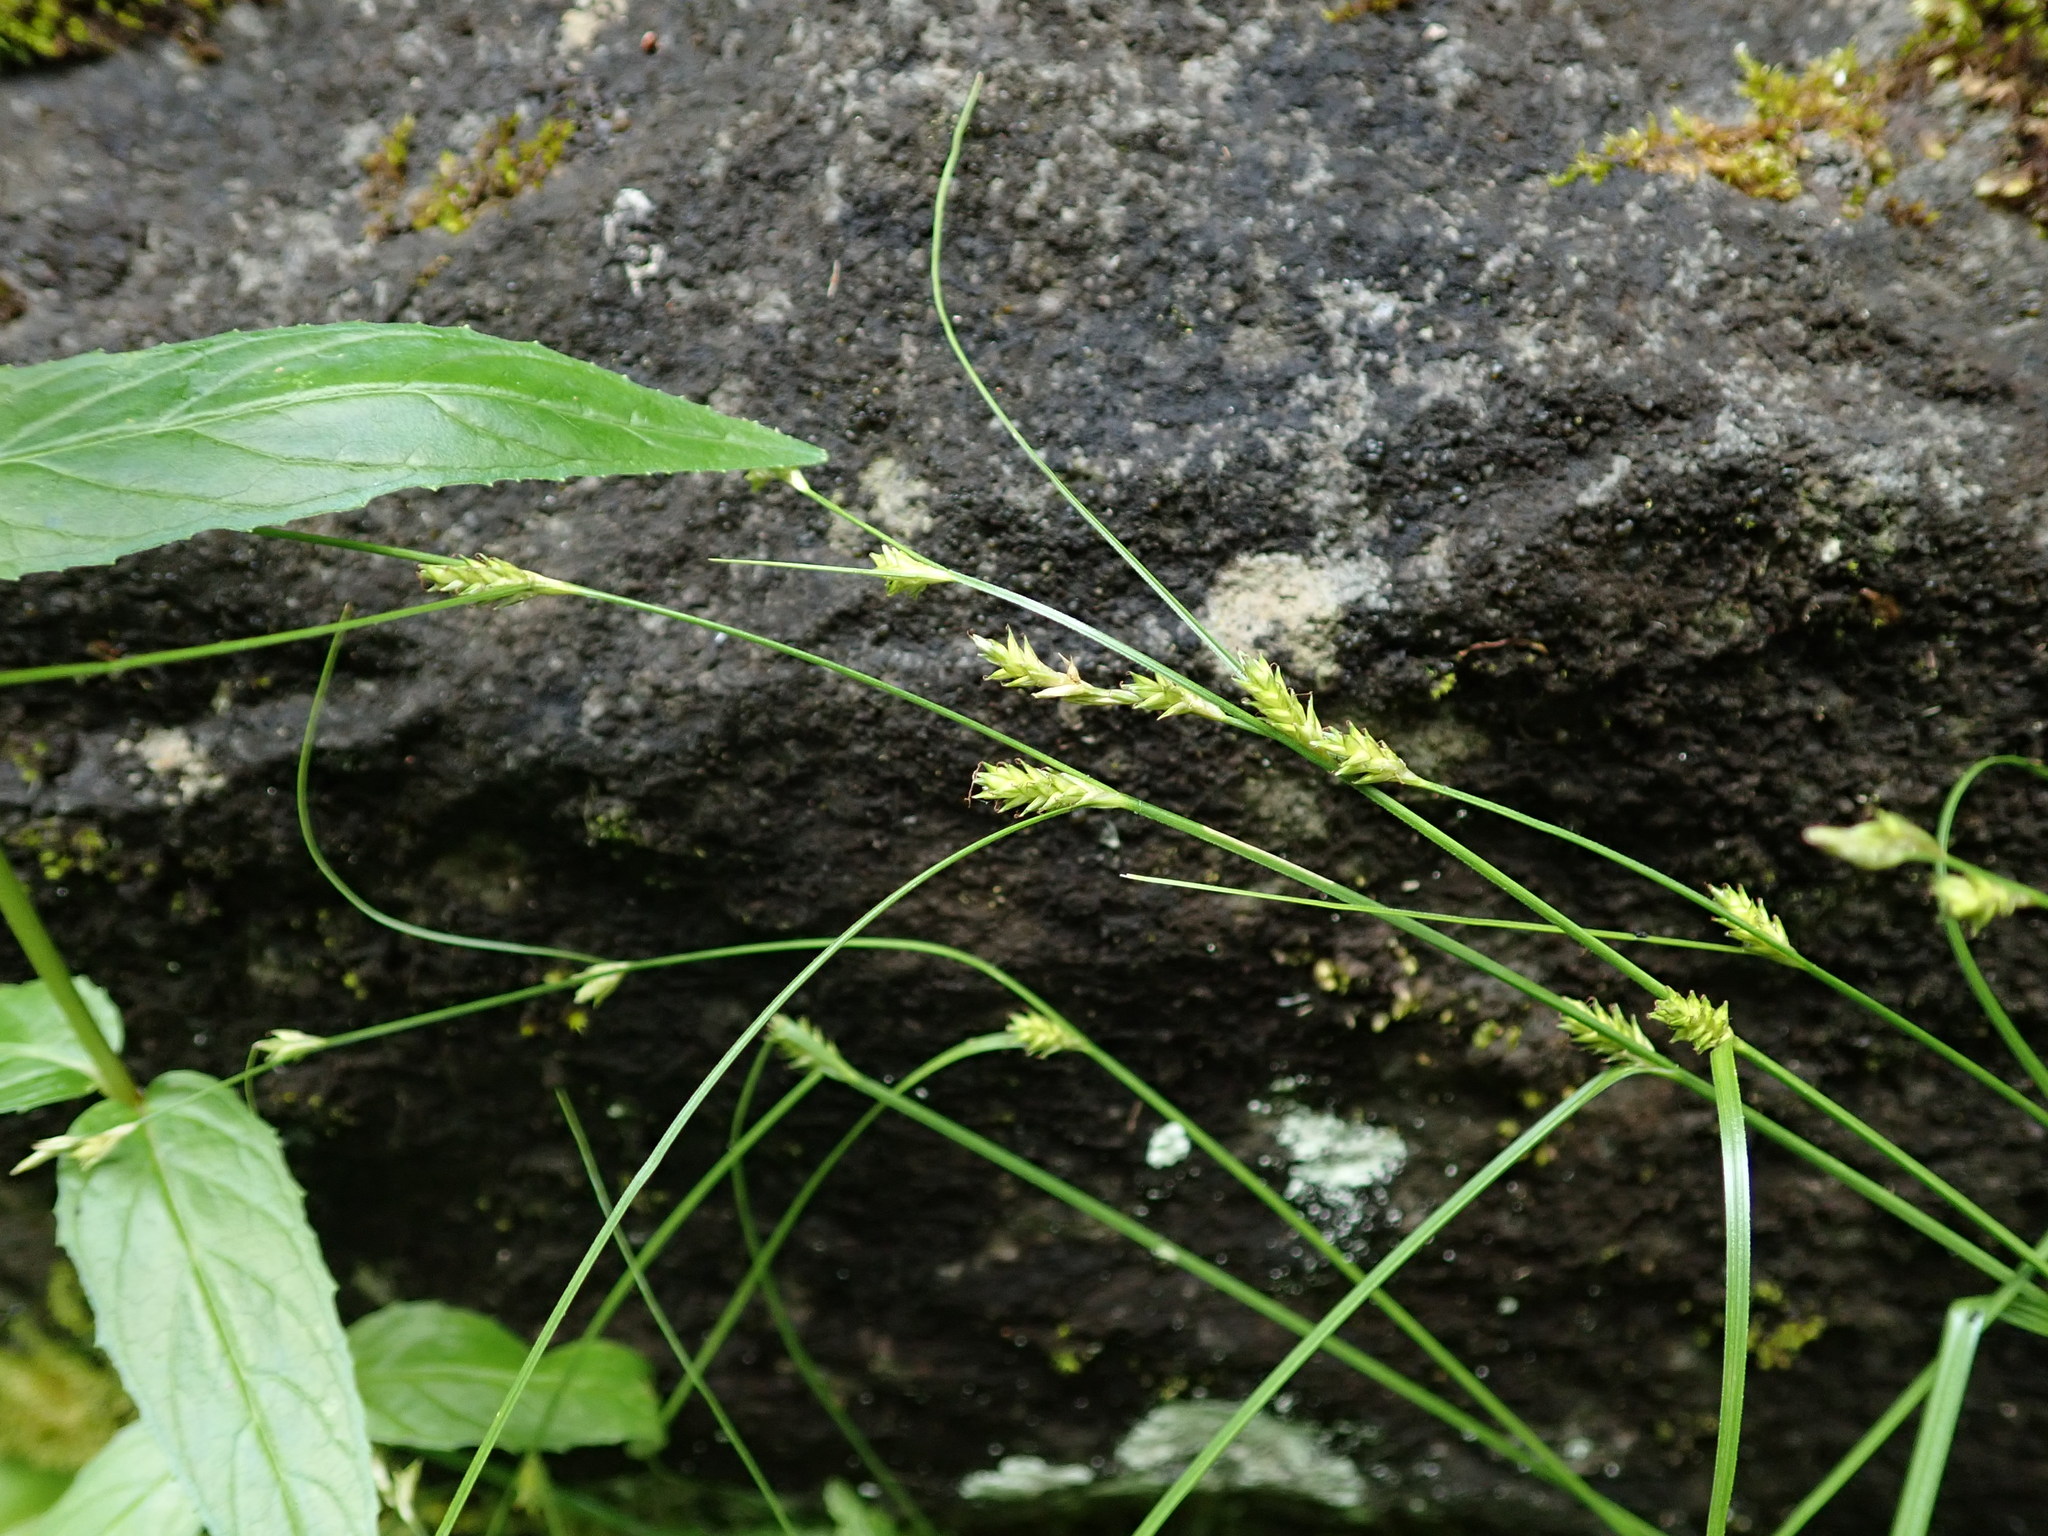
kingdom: Plantae
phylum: Tracheophyta
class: Liliopsida
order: Poales
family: Cyperaceae
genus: Carex
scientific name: Carex remota
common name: Remote sedge
